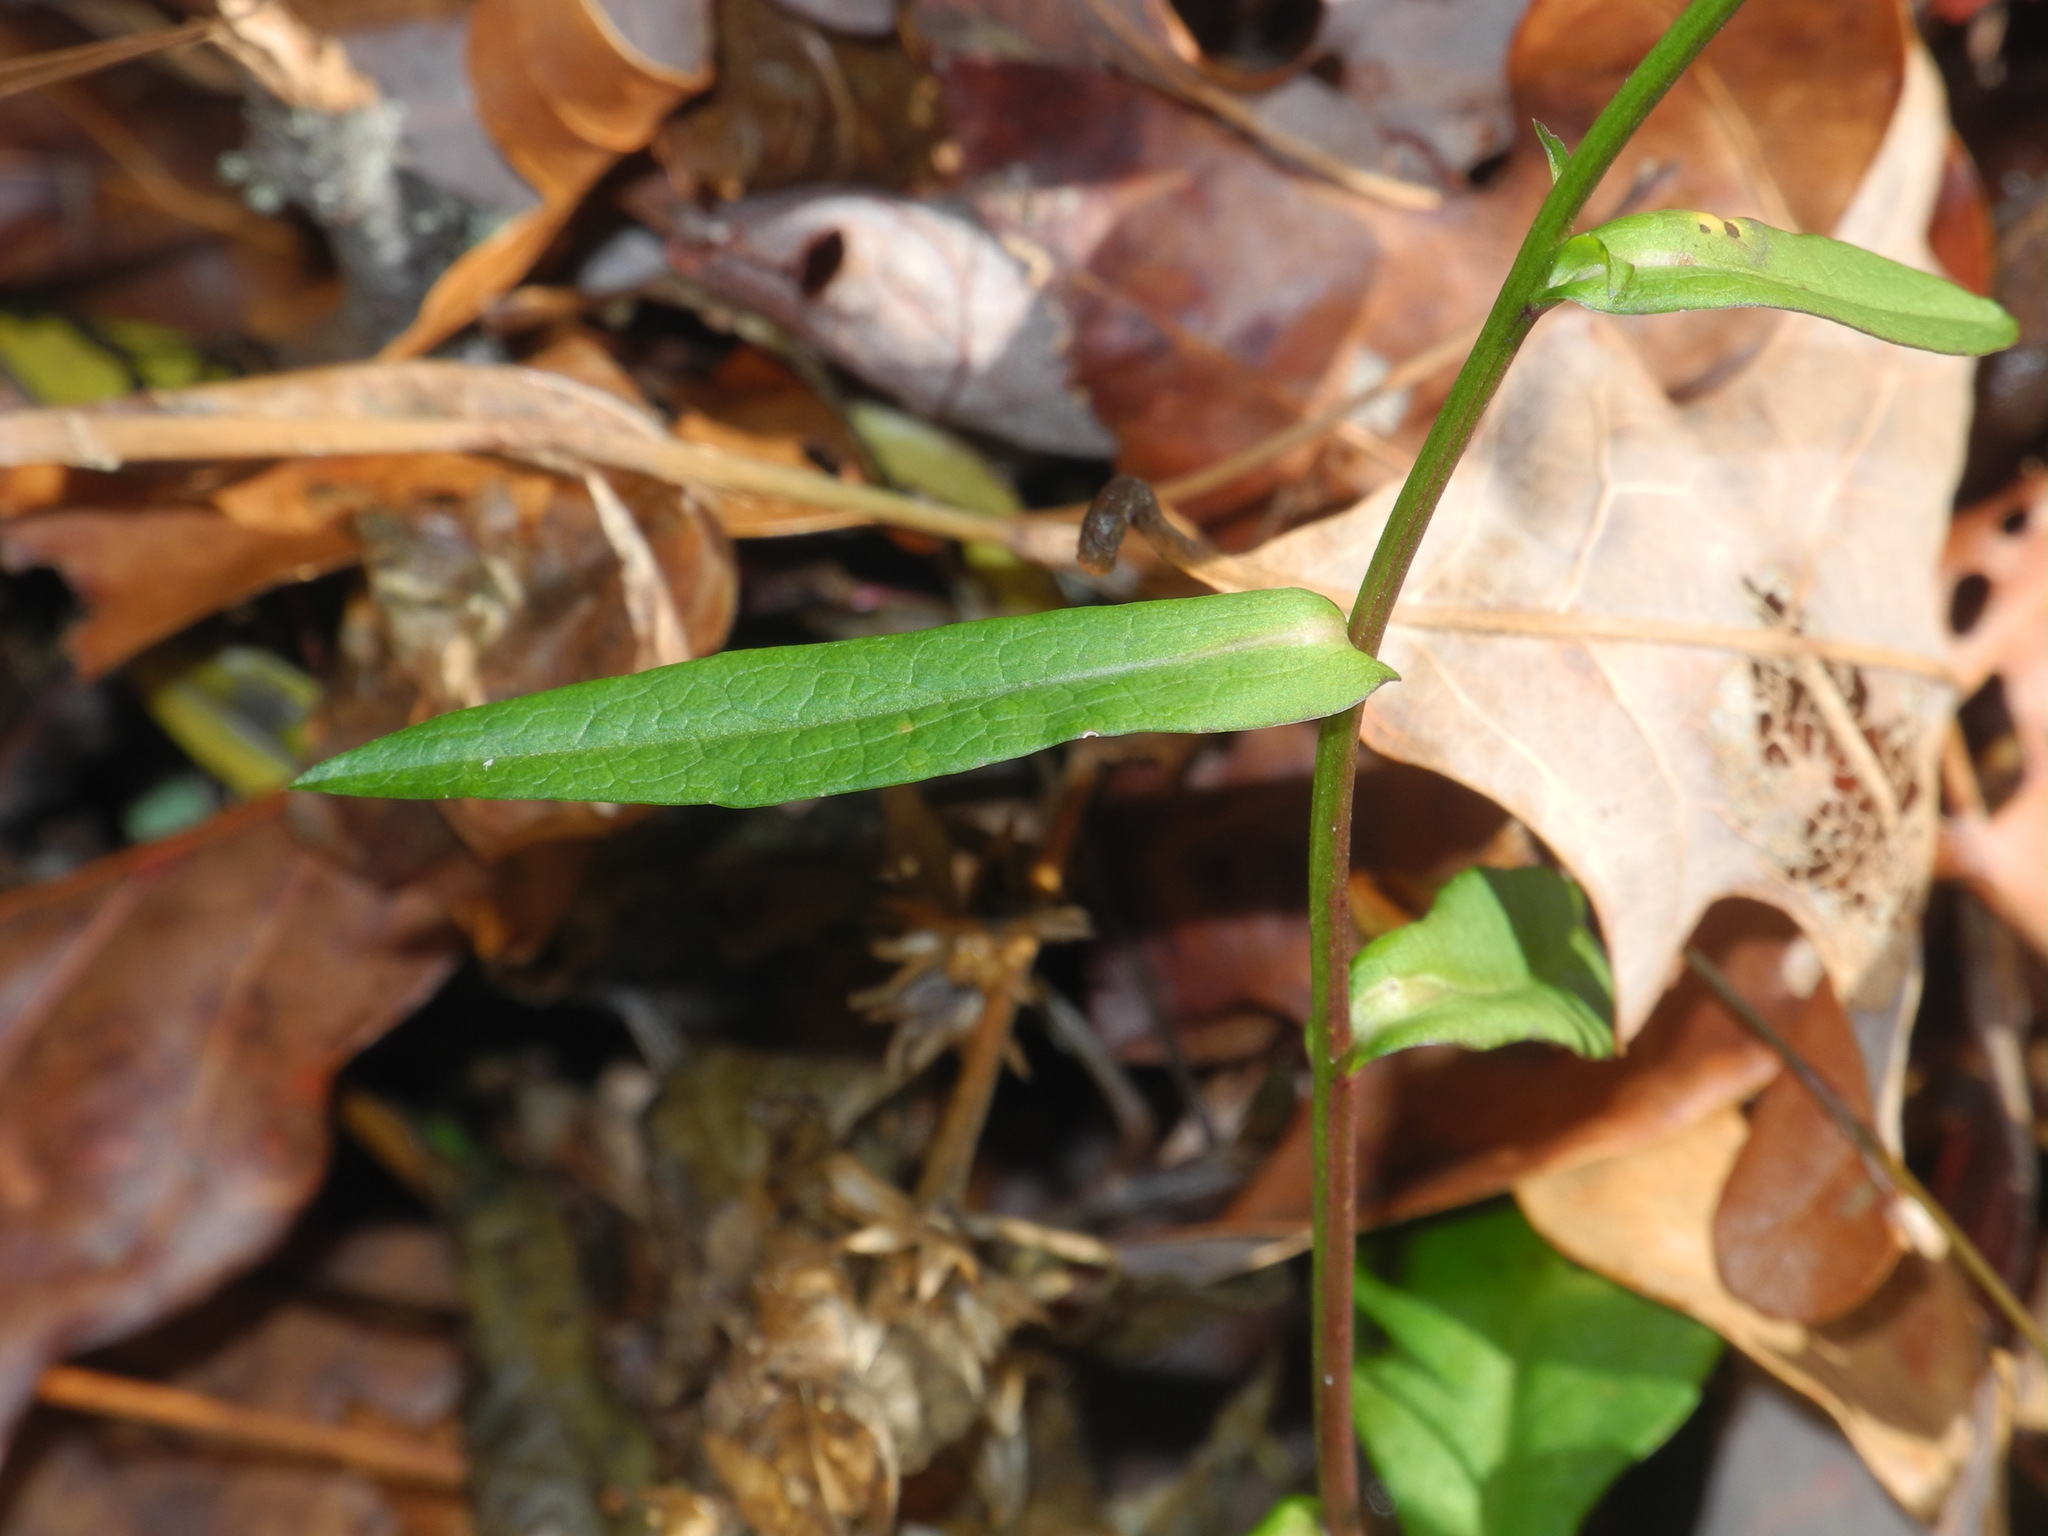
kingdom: Plantae
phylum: Tracheophyta
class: Magnoliopsida
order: Asterales
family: Asteraceae
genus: Symphyotrichum
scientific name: Symphyotrichum novi-belgii
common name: Michaelmas daisy
